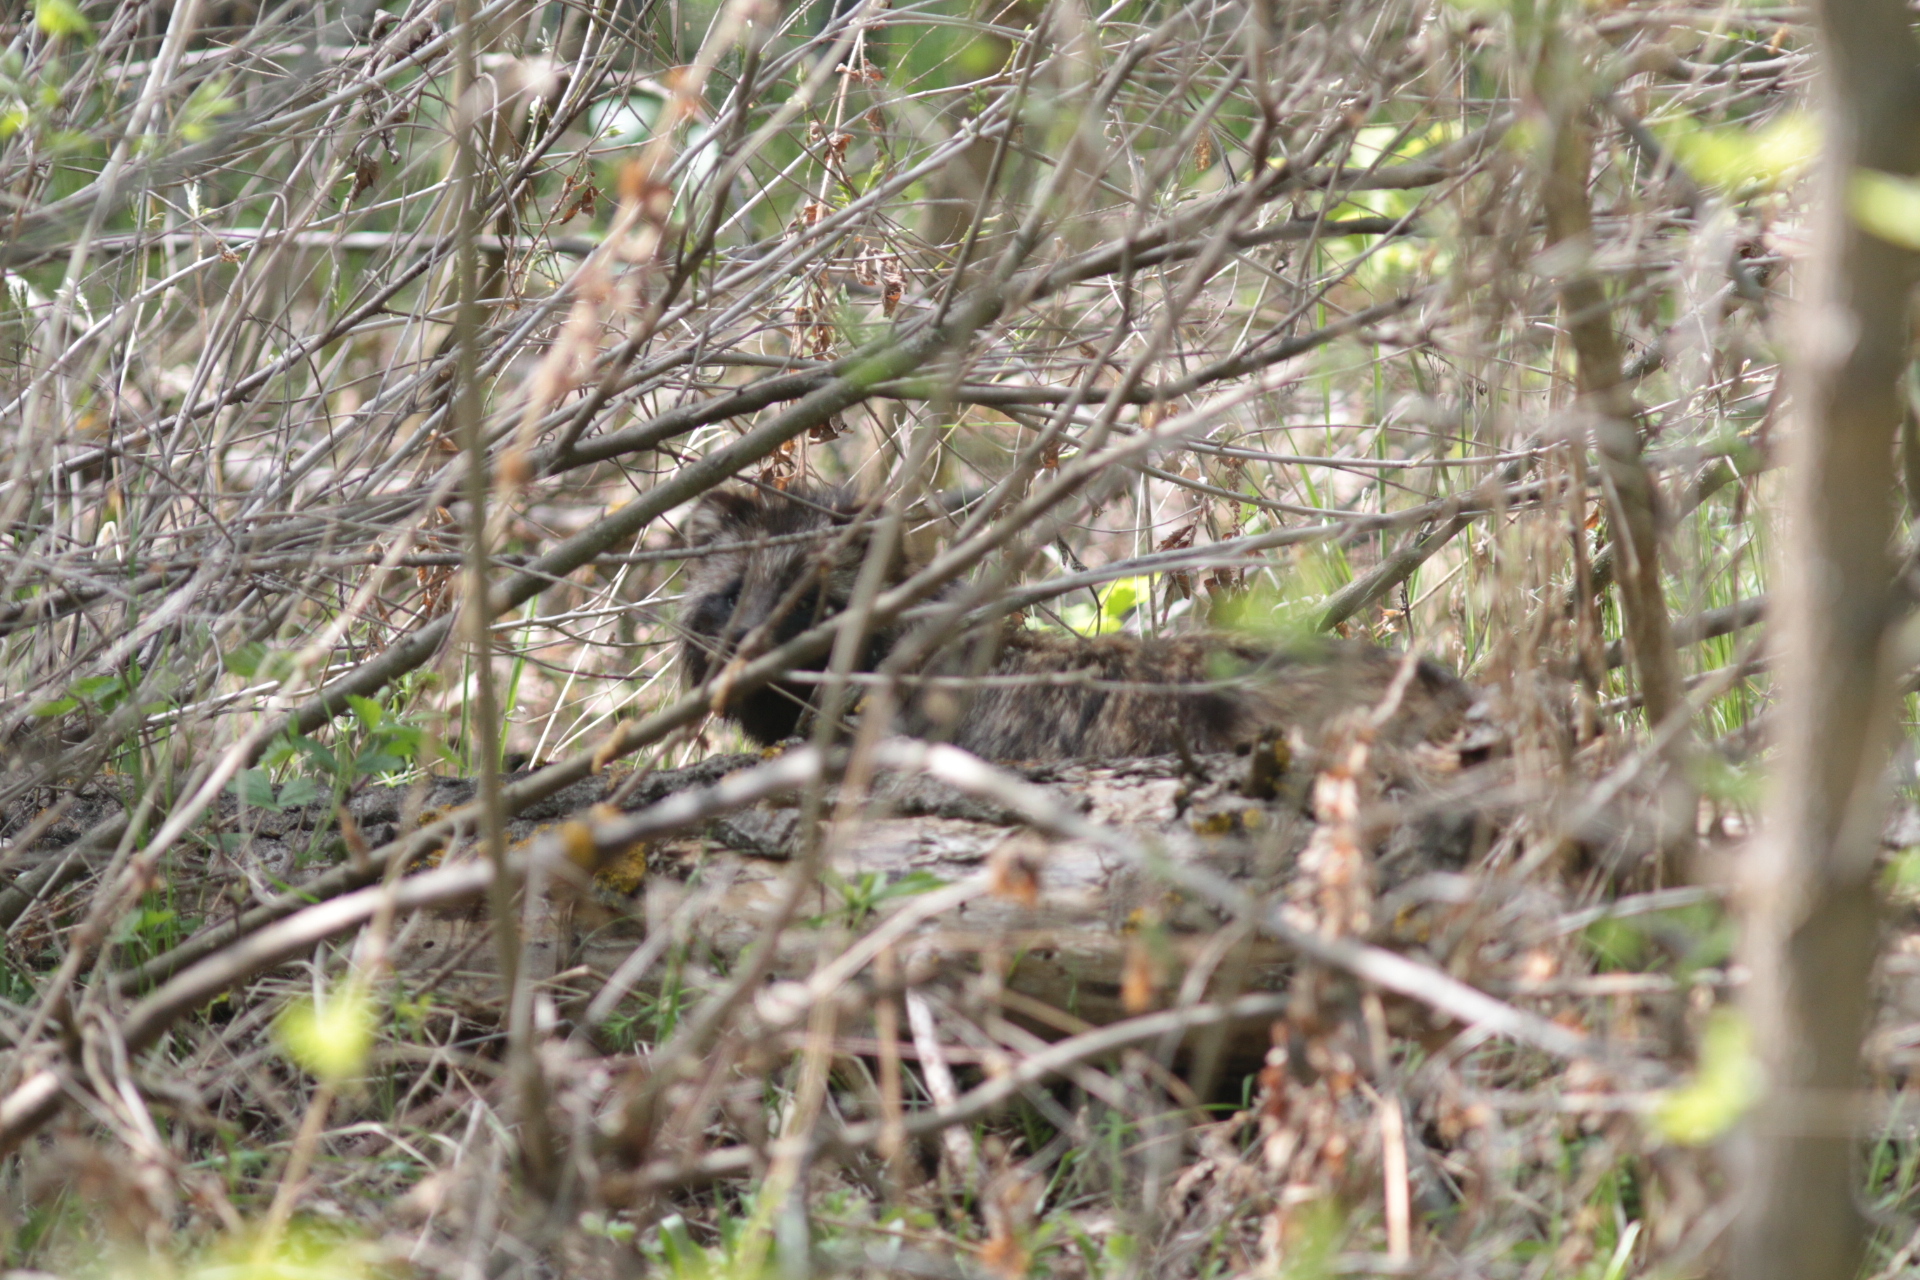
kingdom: Animalia
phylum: Chordata
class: Mammalia
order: Carnivora
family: Canidae
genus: Nyctereutes
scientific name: Nyctereutes procyonoides
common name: Raccoon dog
